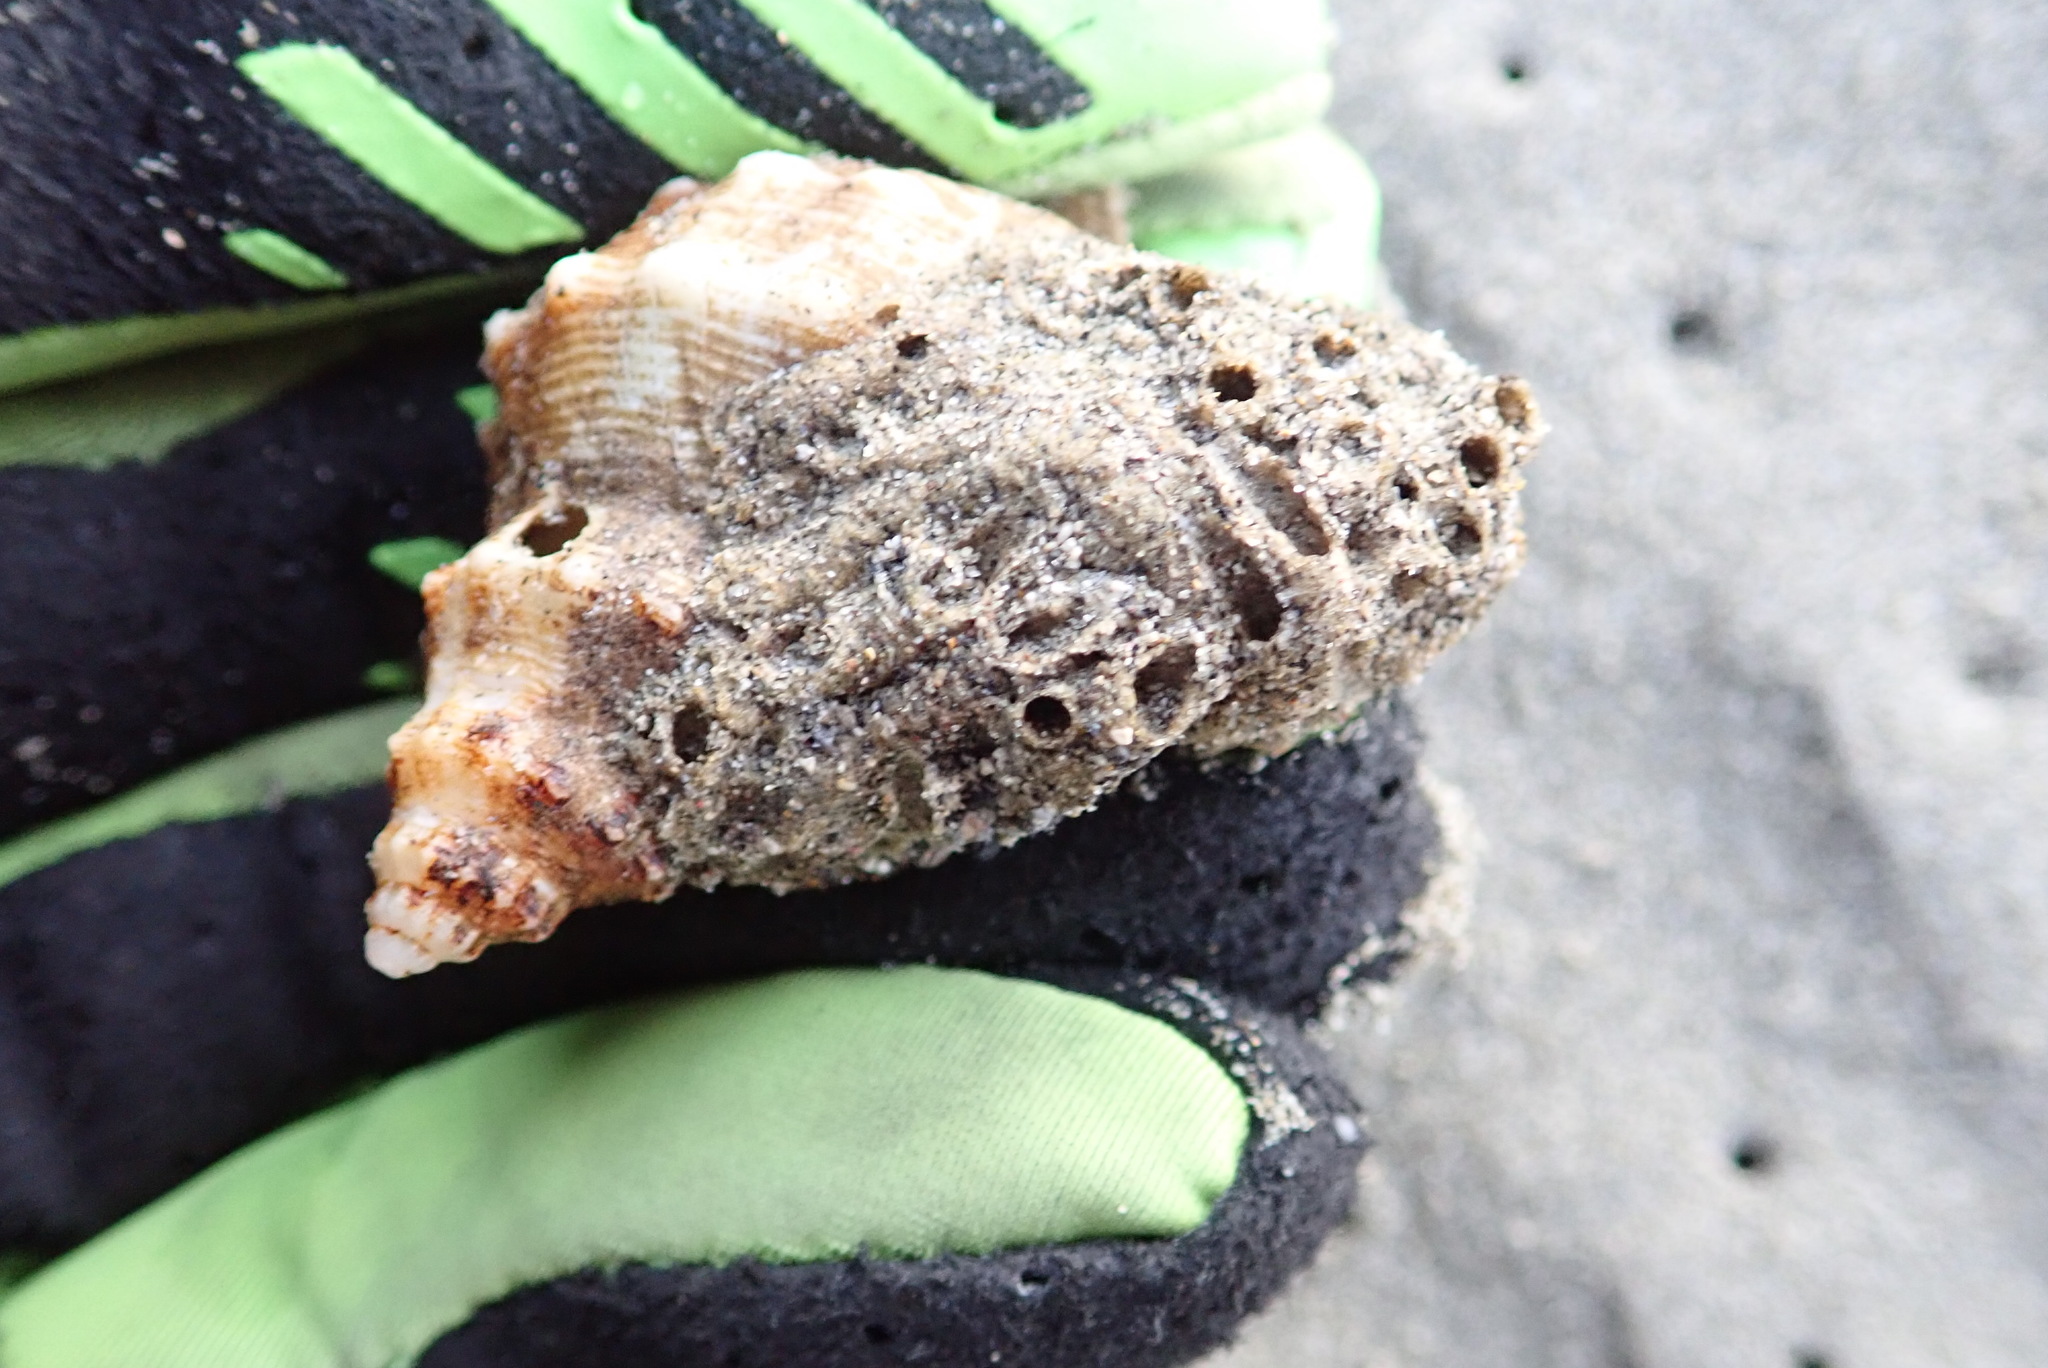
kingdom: Animalia
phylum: Mollusca
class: Gastropoda
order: Neogastropoda
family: Prosiphonidae
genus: Austrofusus
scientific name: Austrofusus glans
